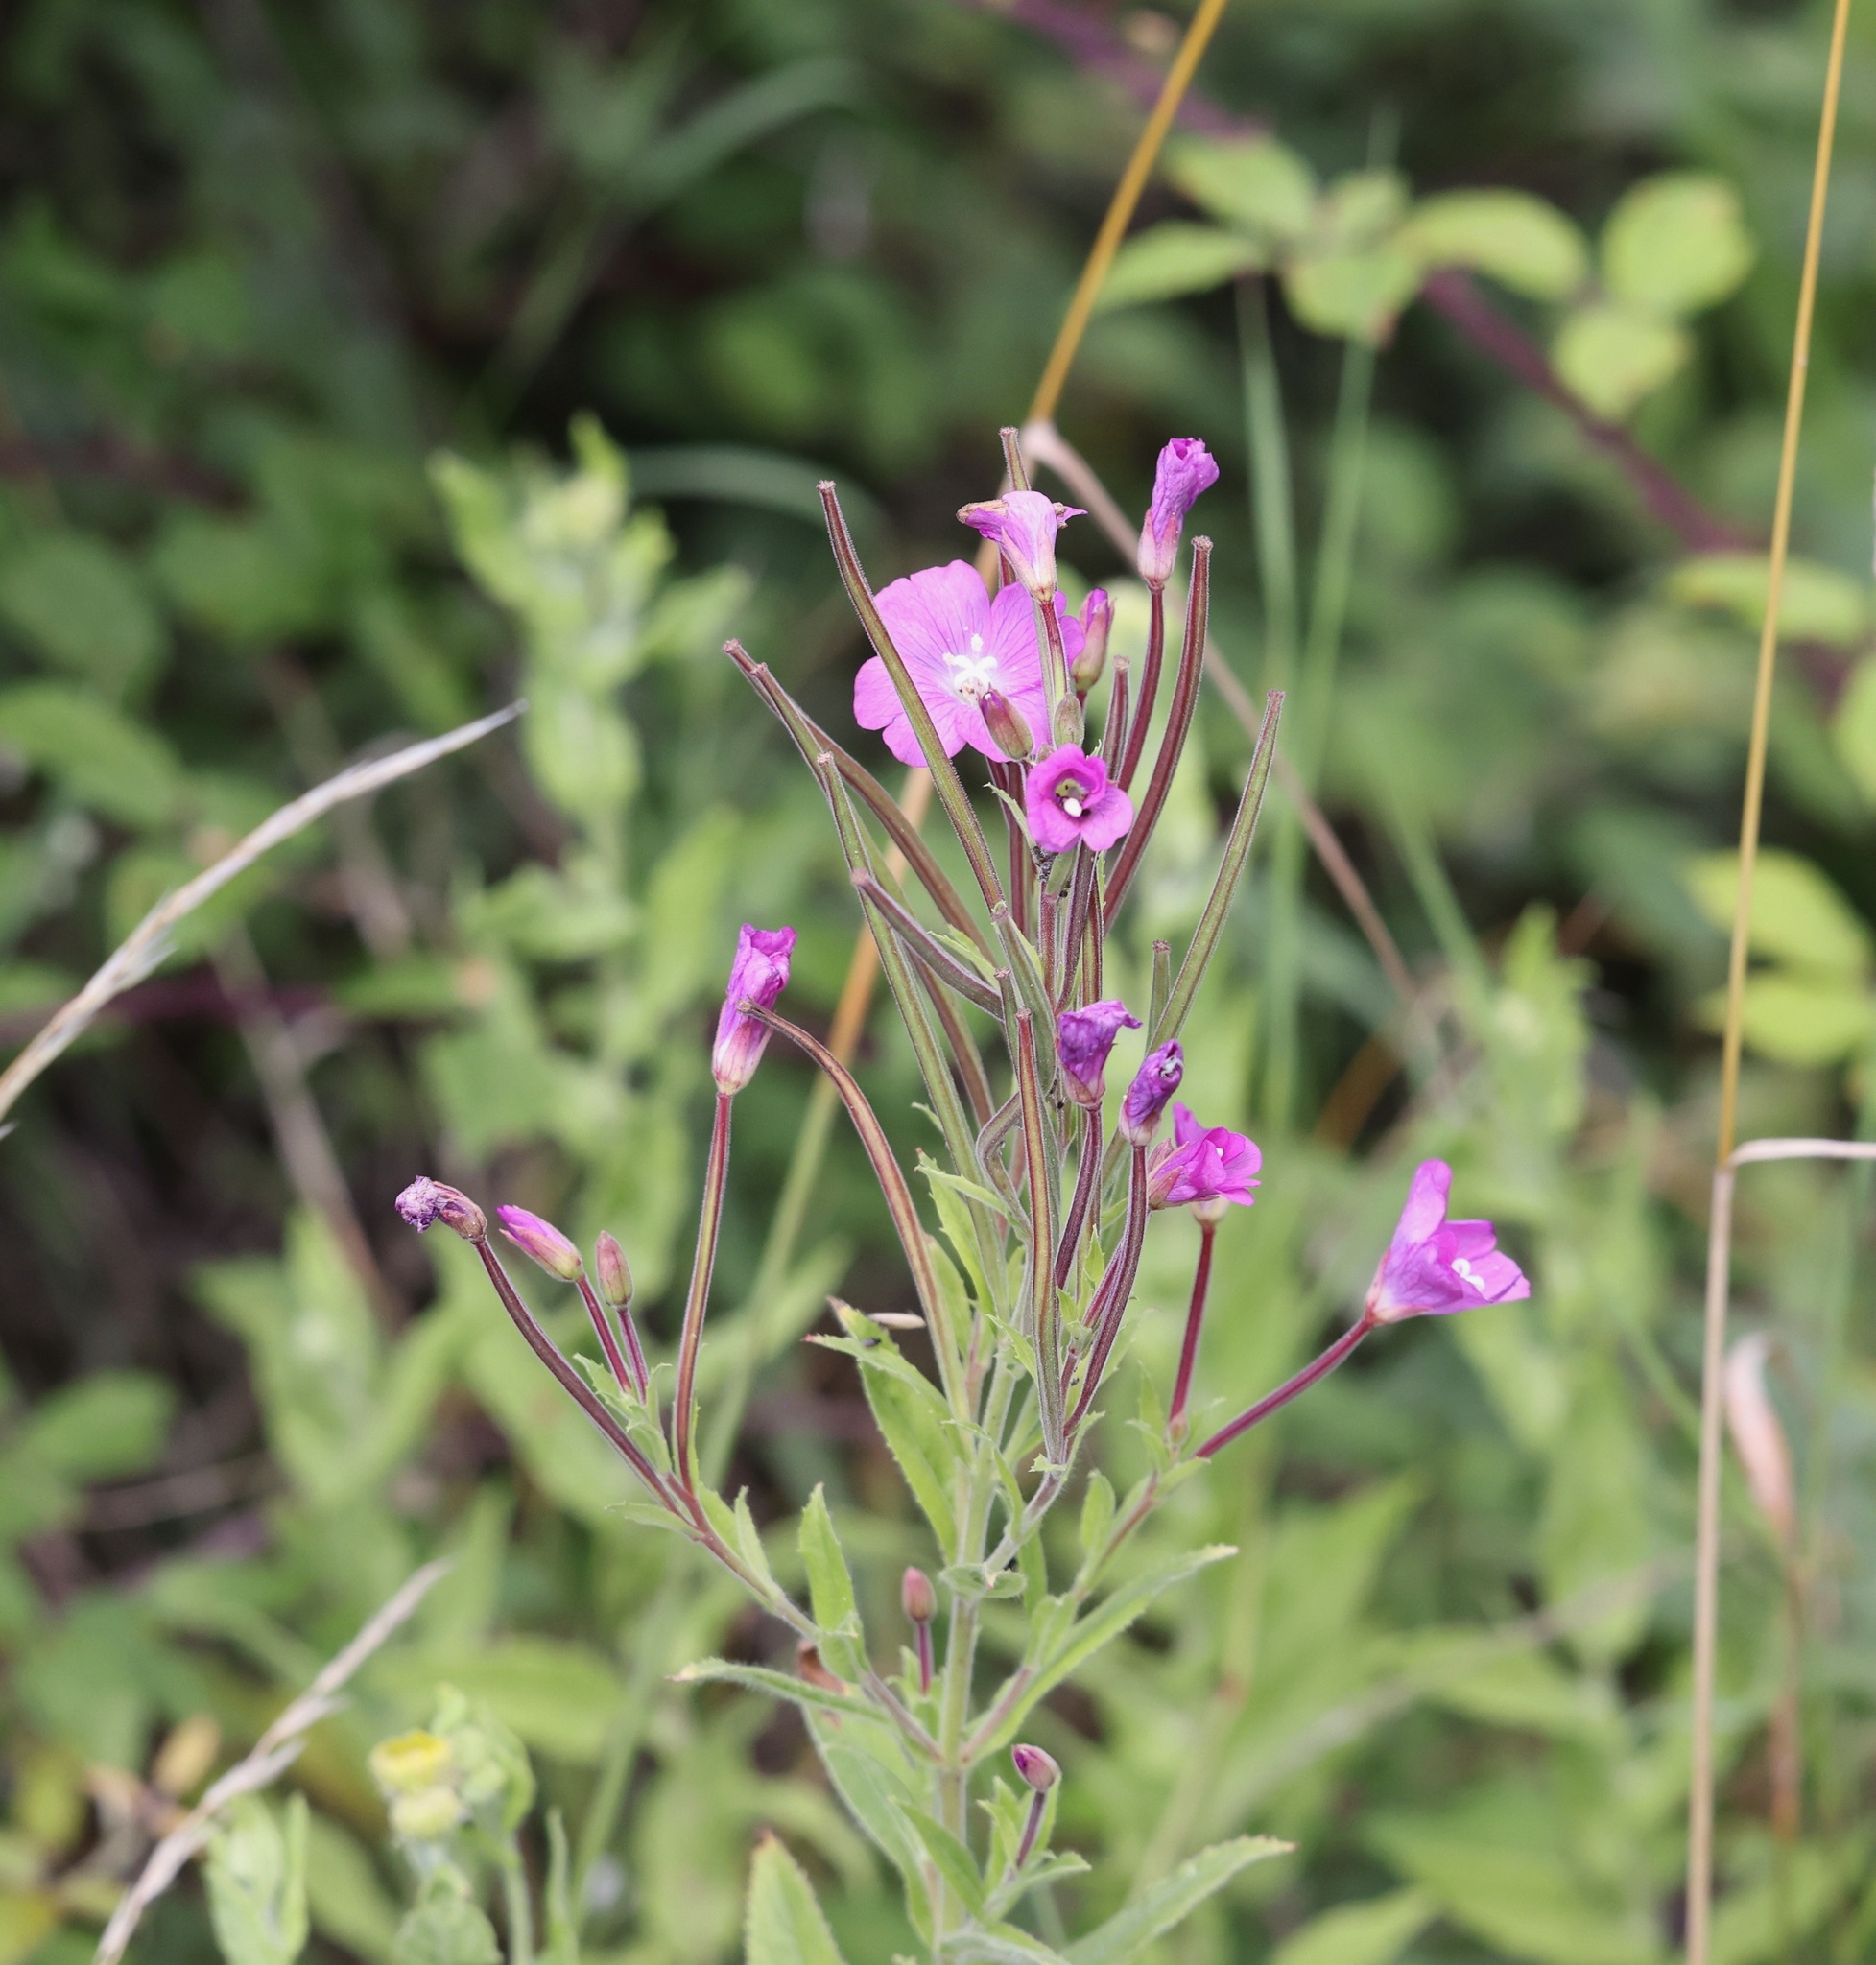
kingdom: Plantae
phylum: Tracheophyta
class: Magnoliopsida
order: Myrtales
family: Onagraceae
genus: Epilobium
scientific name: Epilobium hirsutum
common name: Great willowherb
